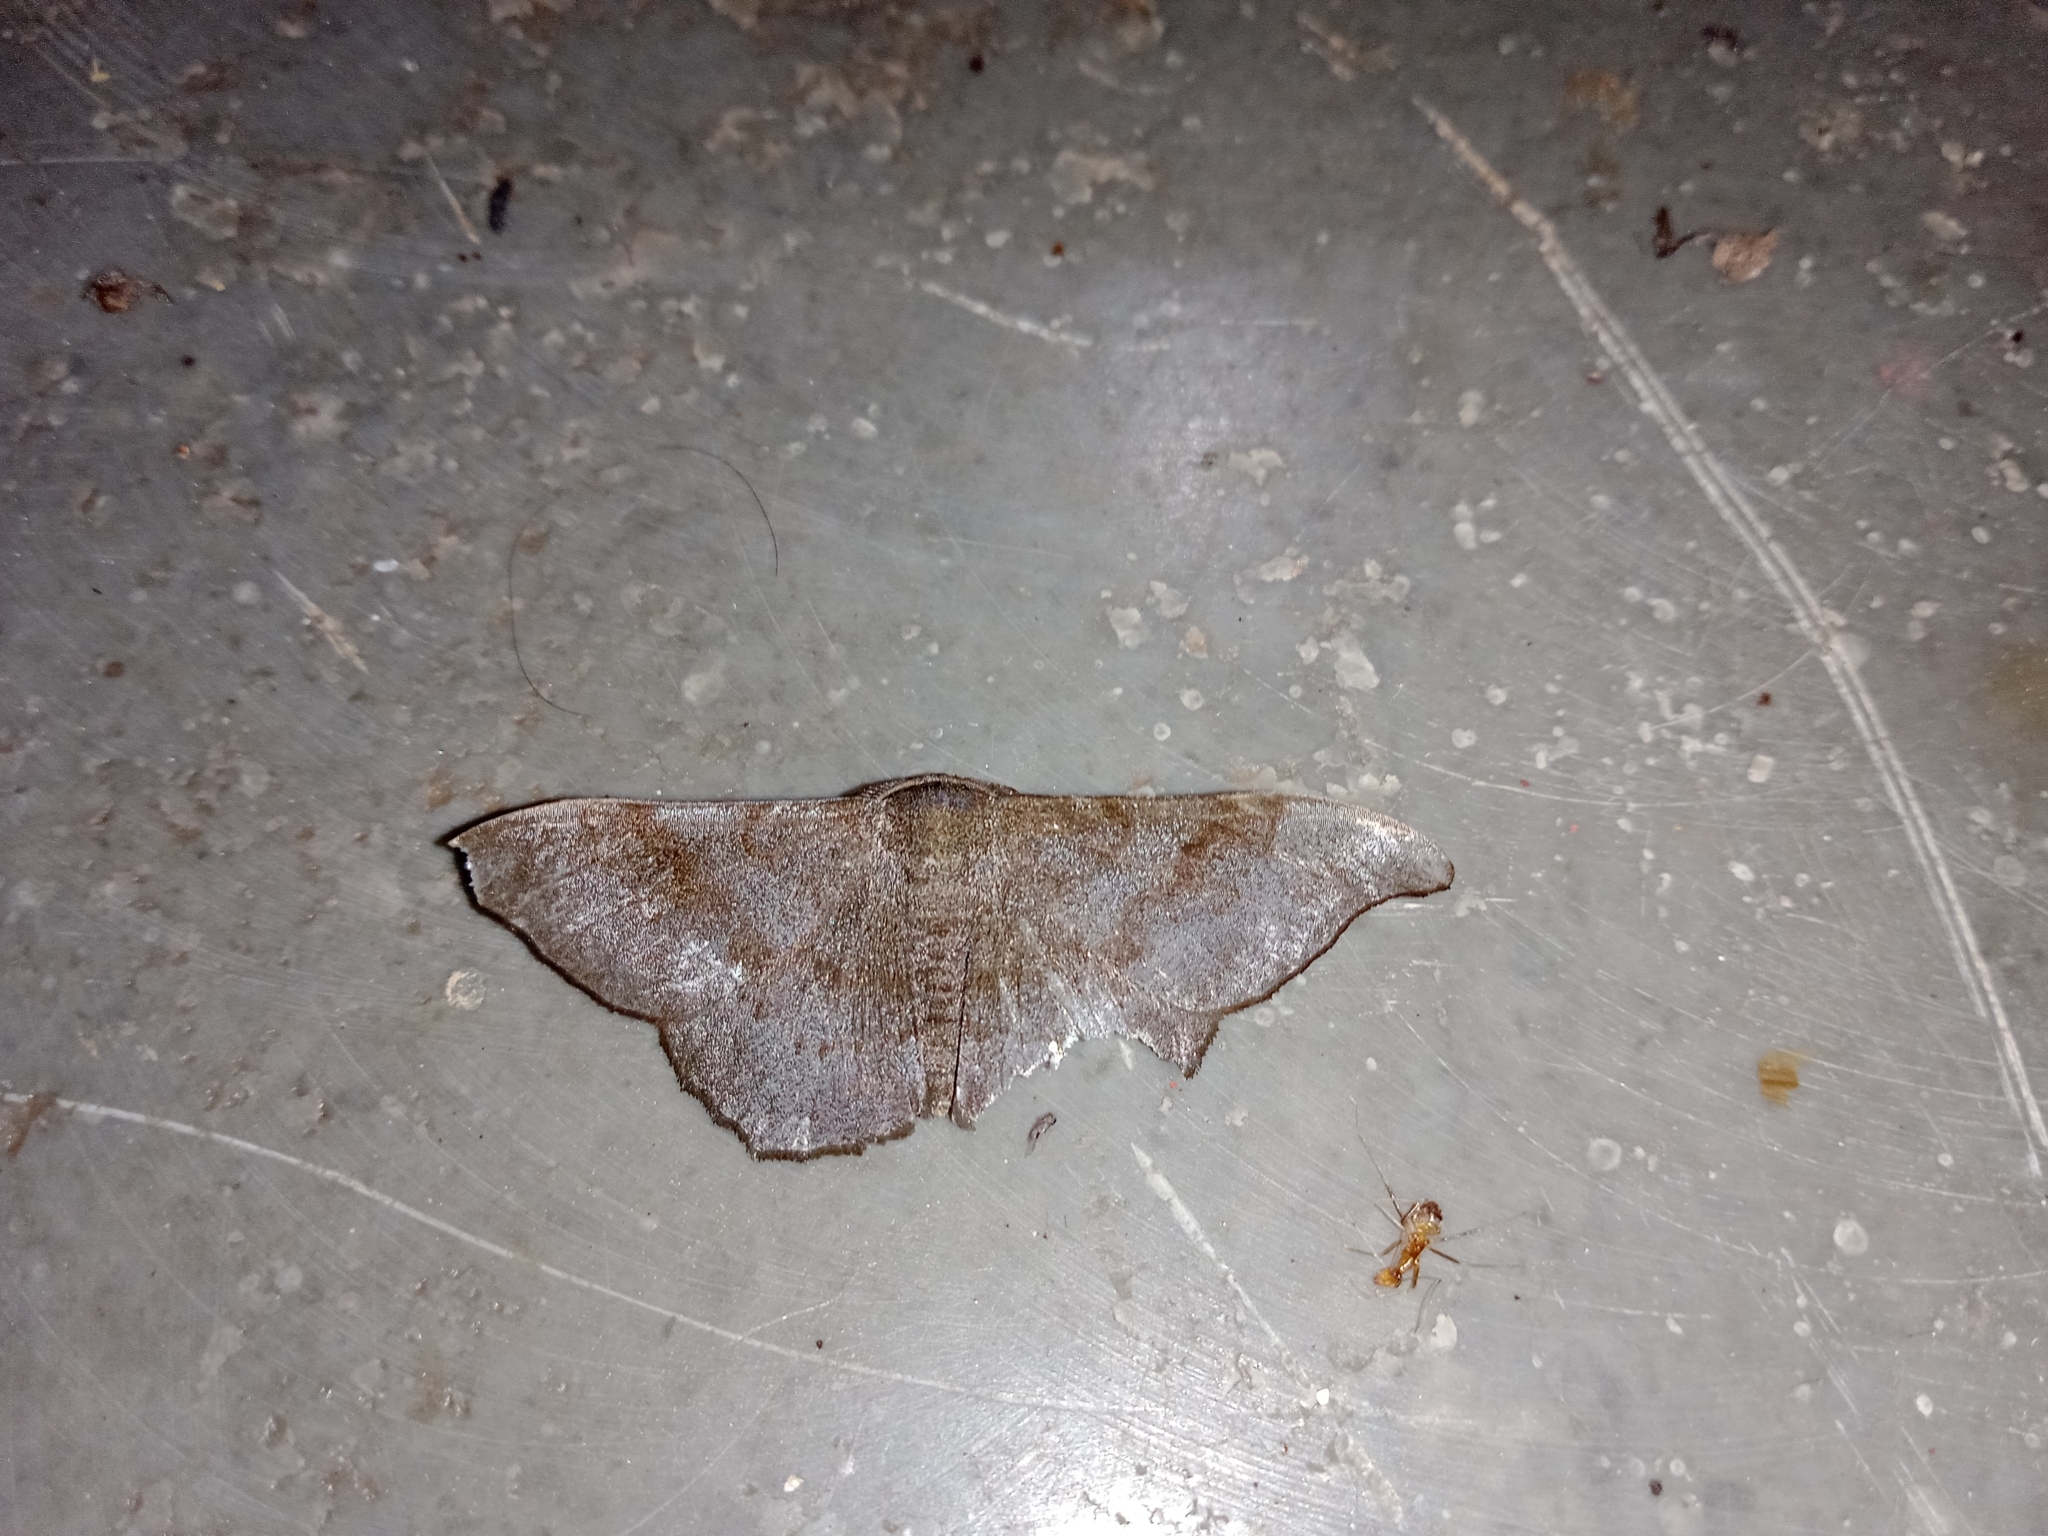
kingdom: Animalia
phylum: Arthropoda
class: Insecta
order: Lepidoptera
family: Geometridae
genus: Hyposidra
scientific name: Hyposidra talaca
